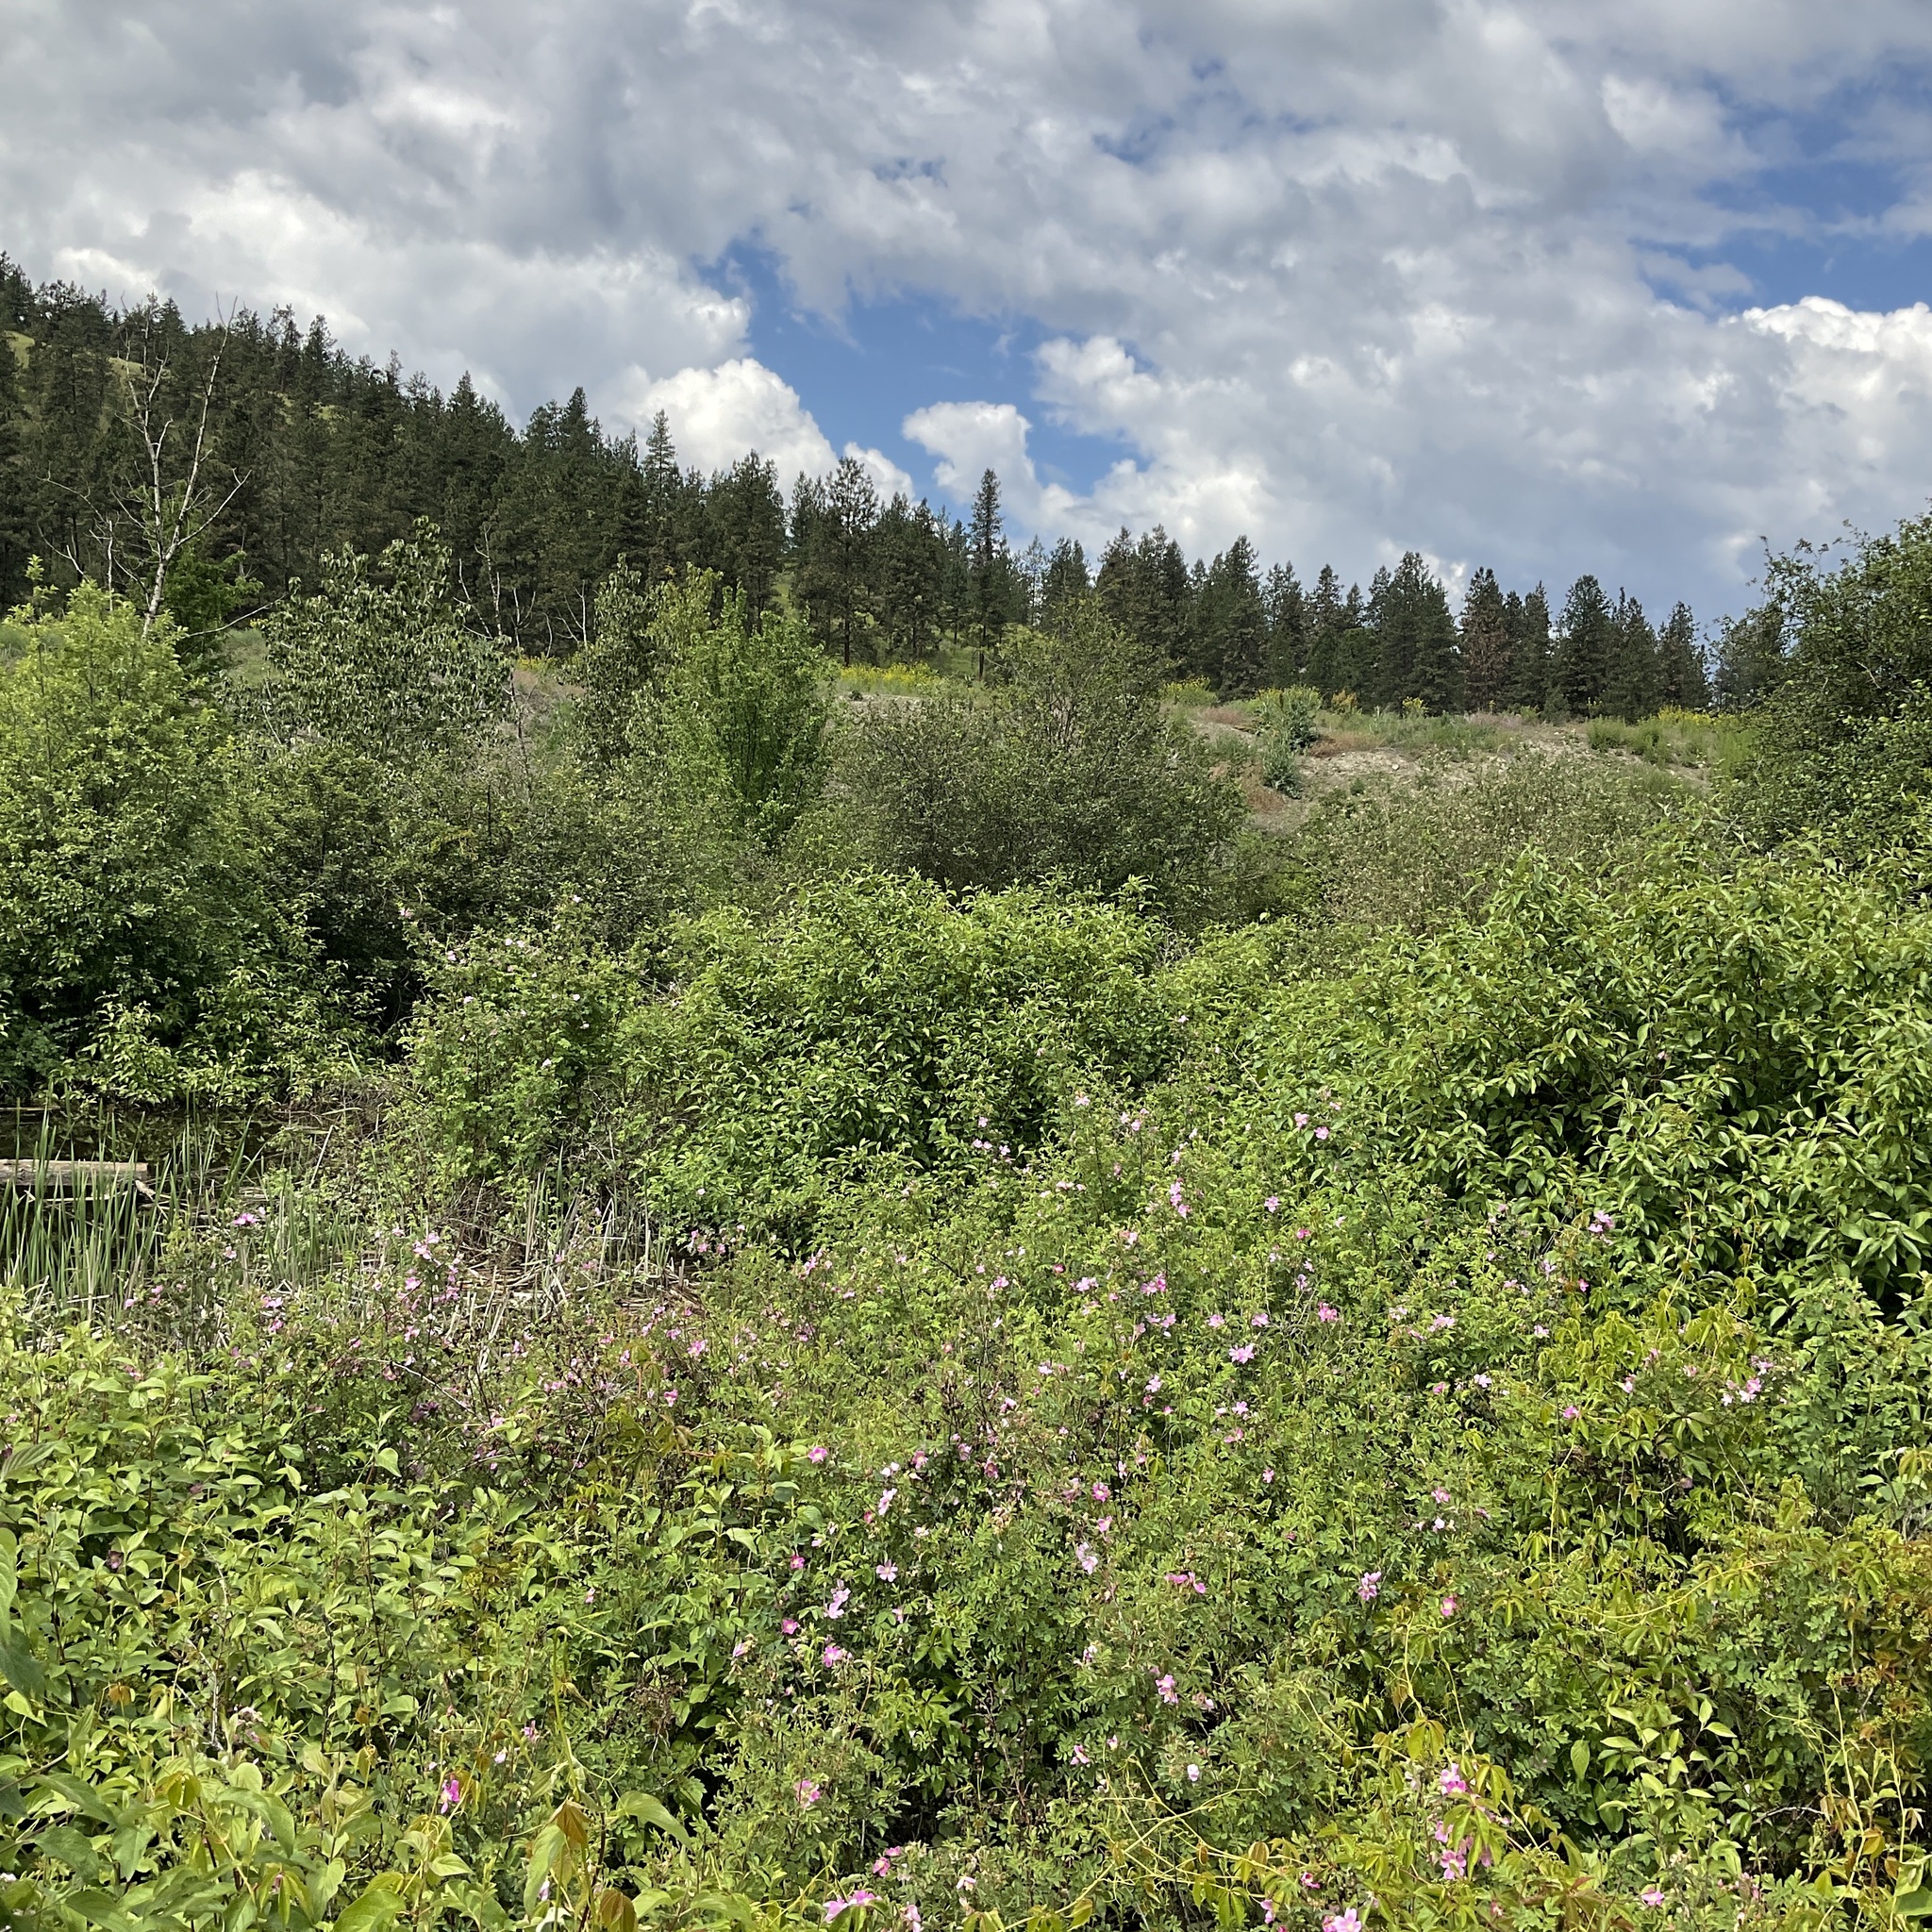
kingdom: Plantae
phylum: Tracheophyta
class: Magnoliopsida
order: Asterales
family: Asteraceae
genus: Onopordum
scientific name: Onopordum acanthium
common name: Scotch thistle
